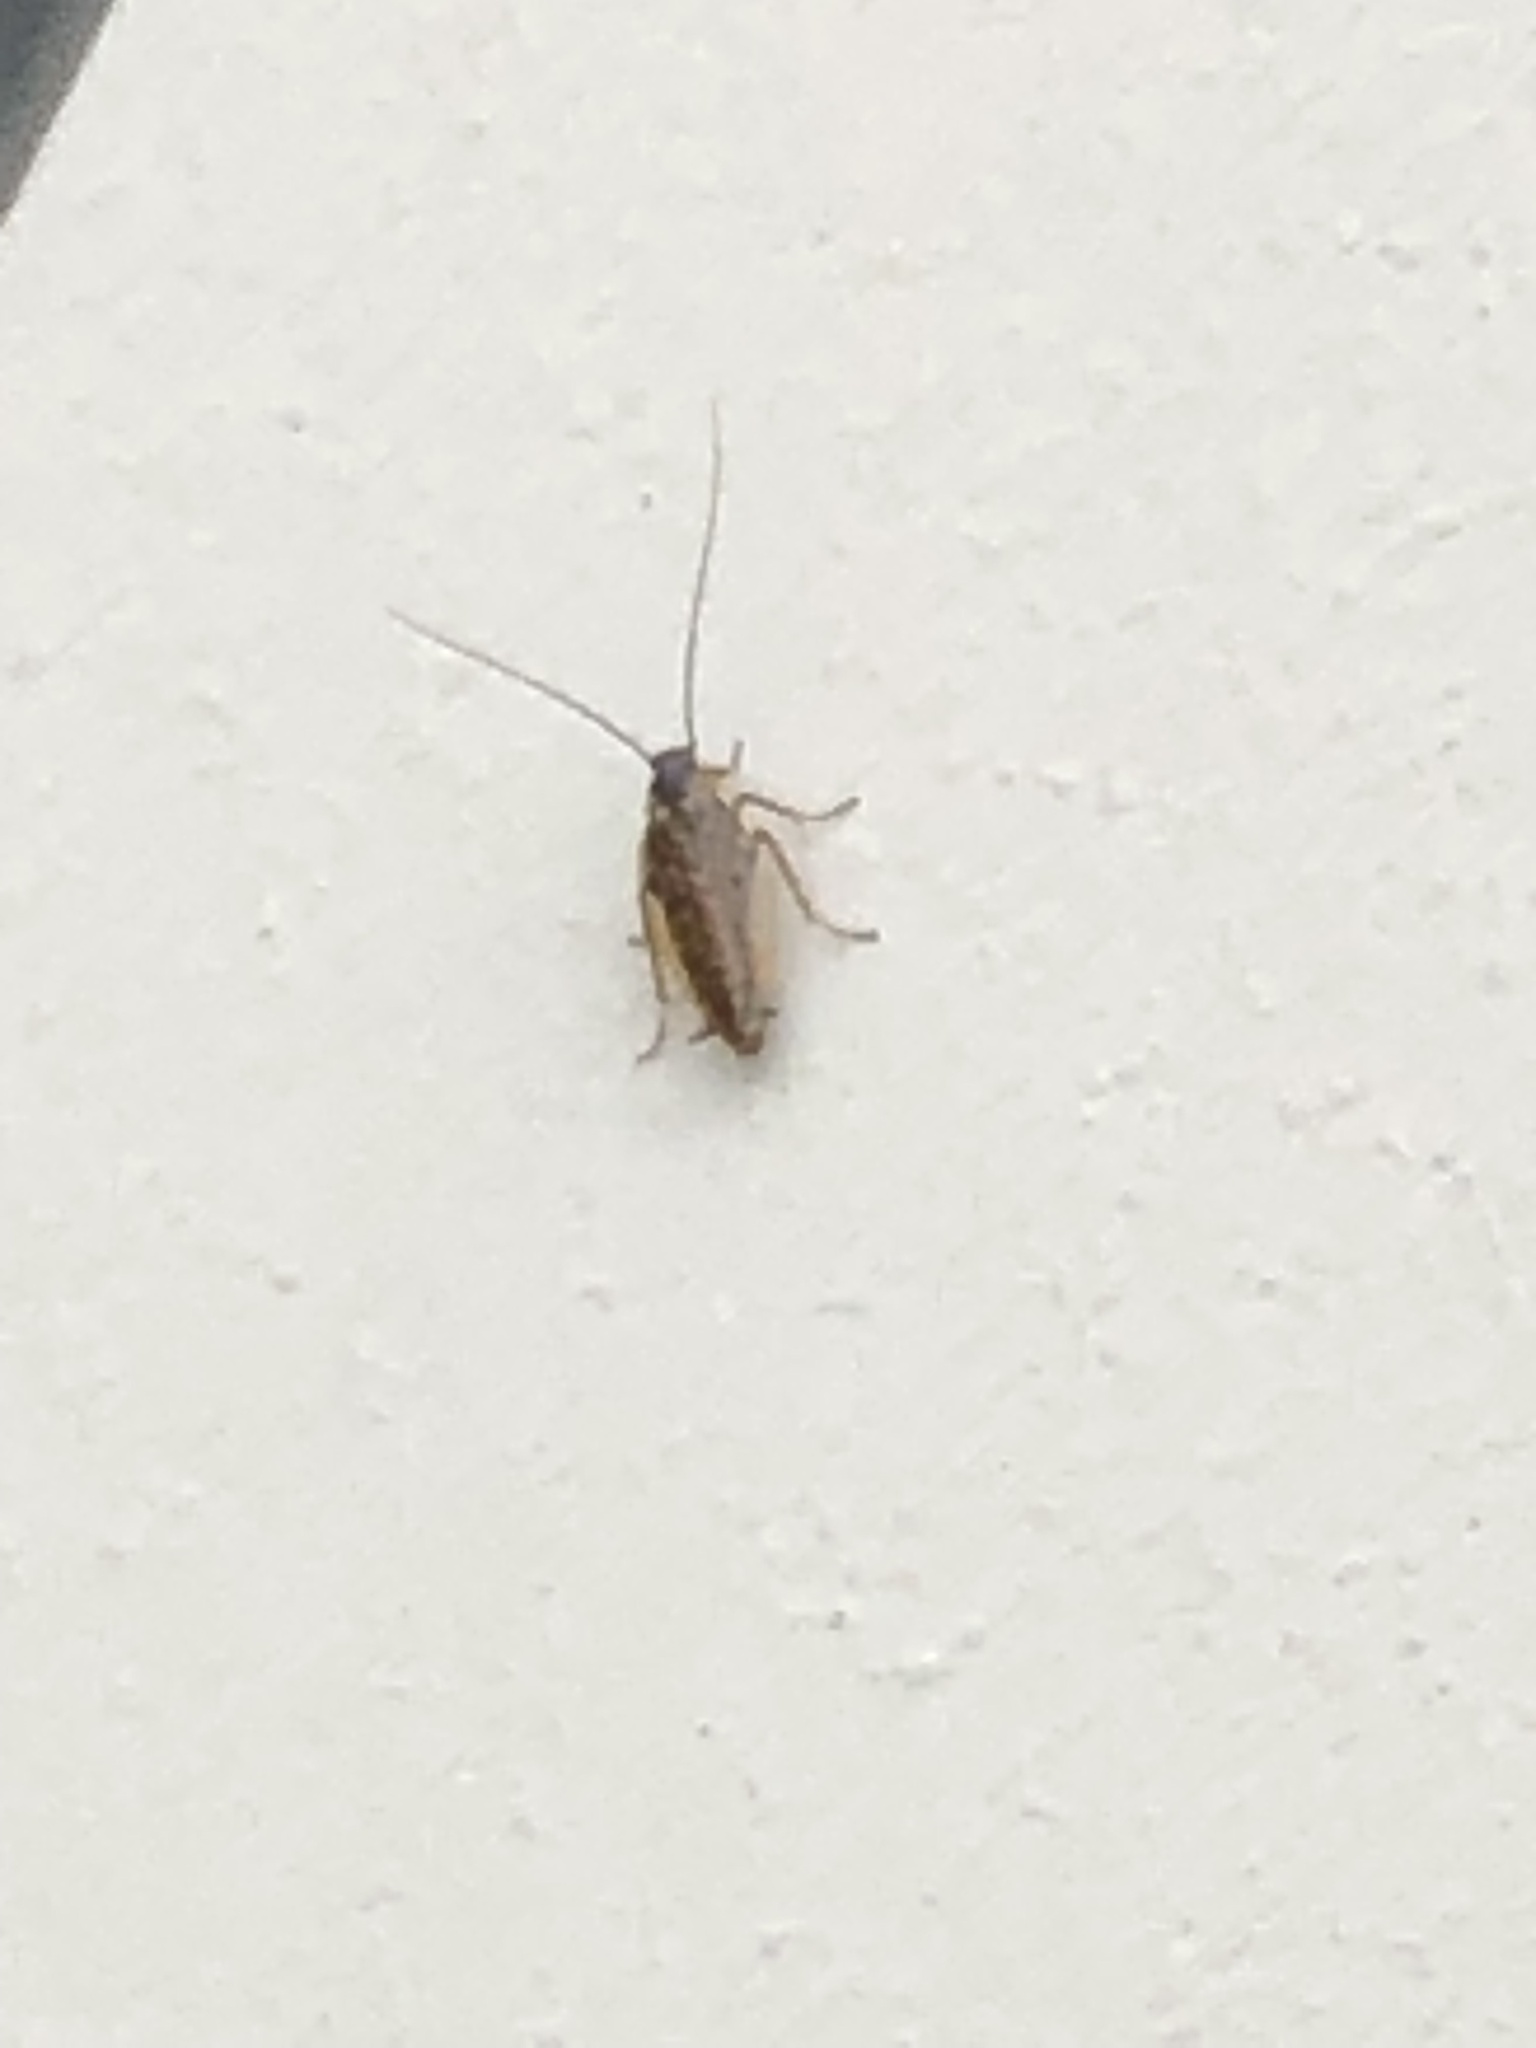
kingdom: Animalia
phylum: Arthropoda
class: Insecta
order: Blattodea
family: Ectobiidae
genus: Ectobius
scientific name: Ectobius lapponicus
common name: Dusky cockroach
